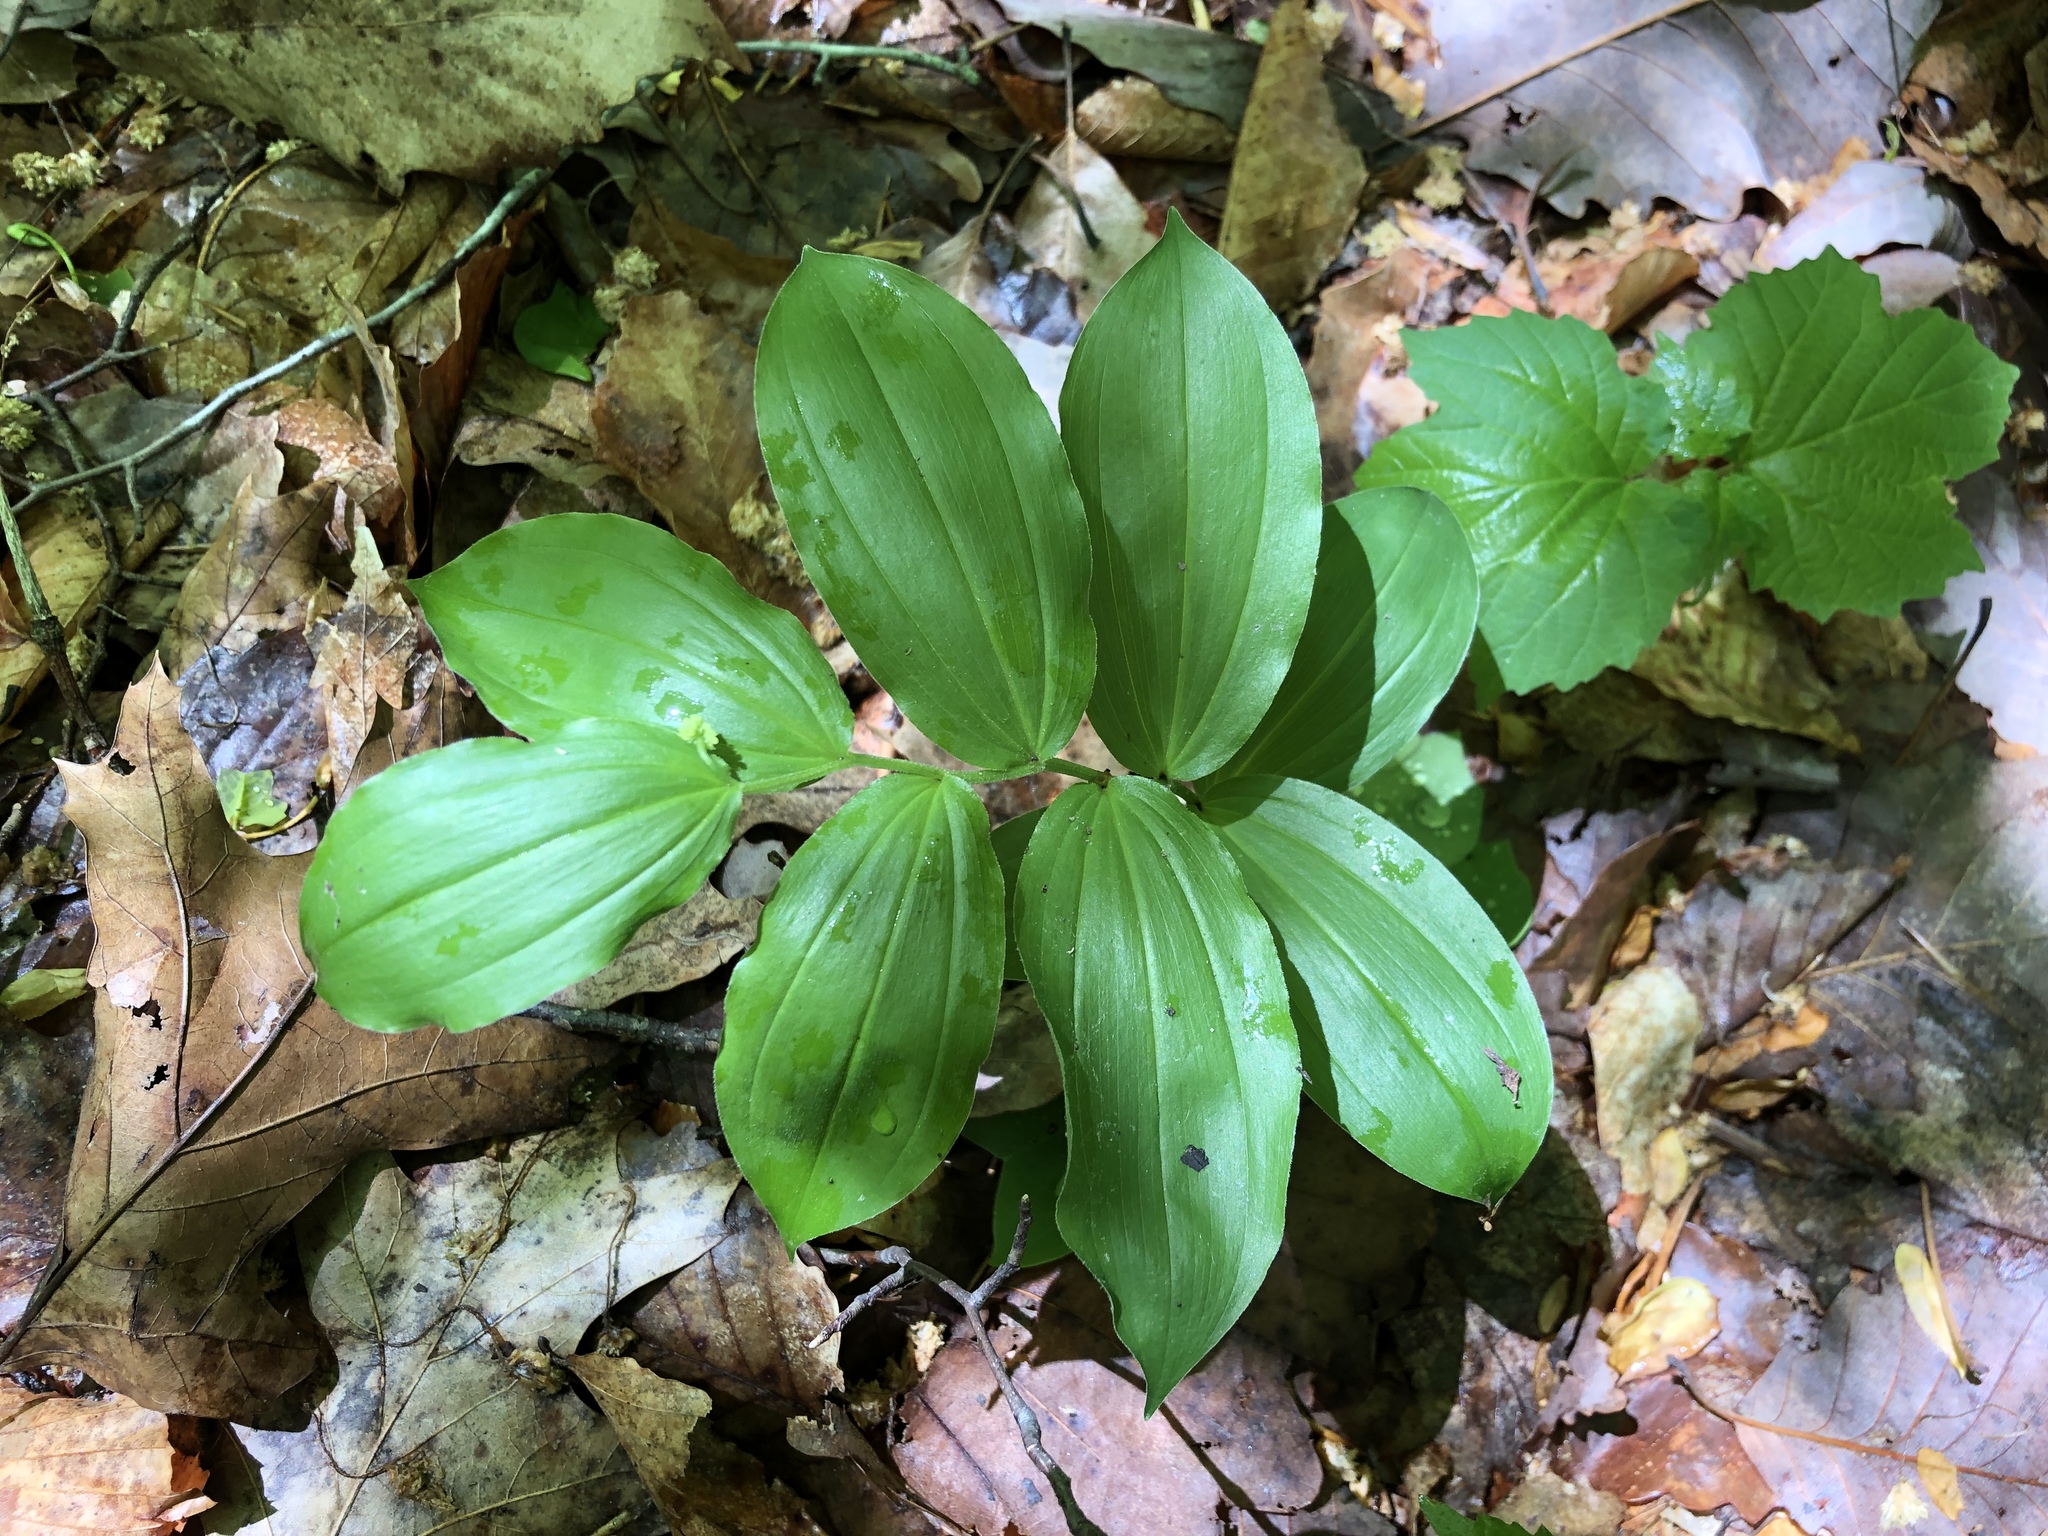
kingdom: Plantae
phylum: Tracheophyta
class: Liliopsida
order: Asparagales
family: Asparagaceae
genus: Maianthemum
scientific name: Maianthemum racemosum
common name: False spikenard
